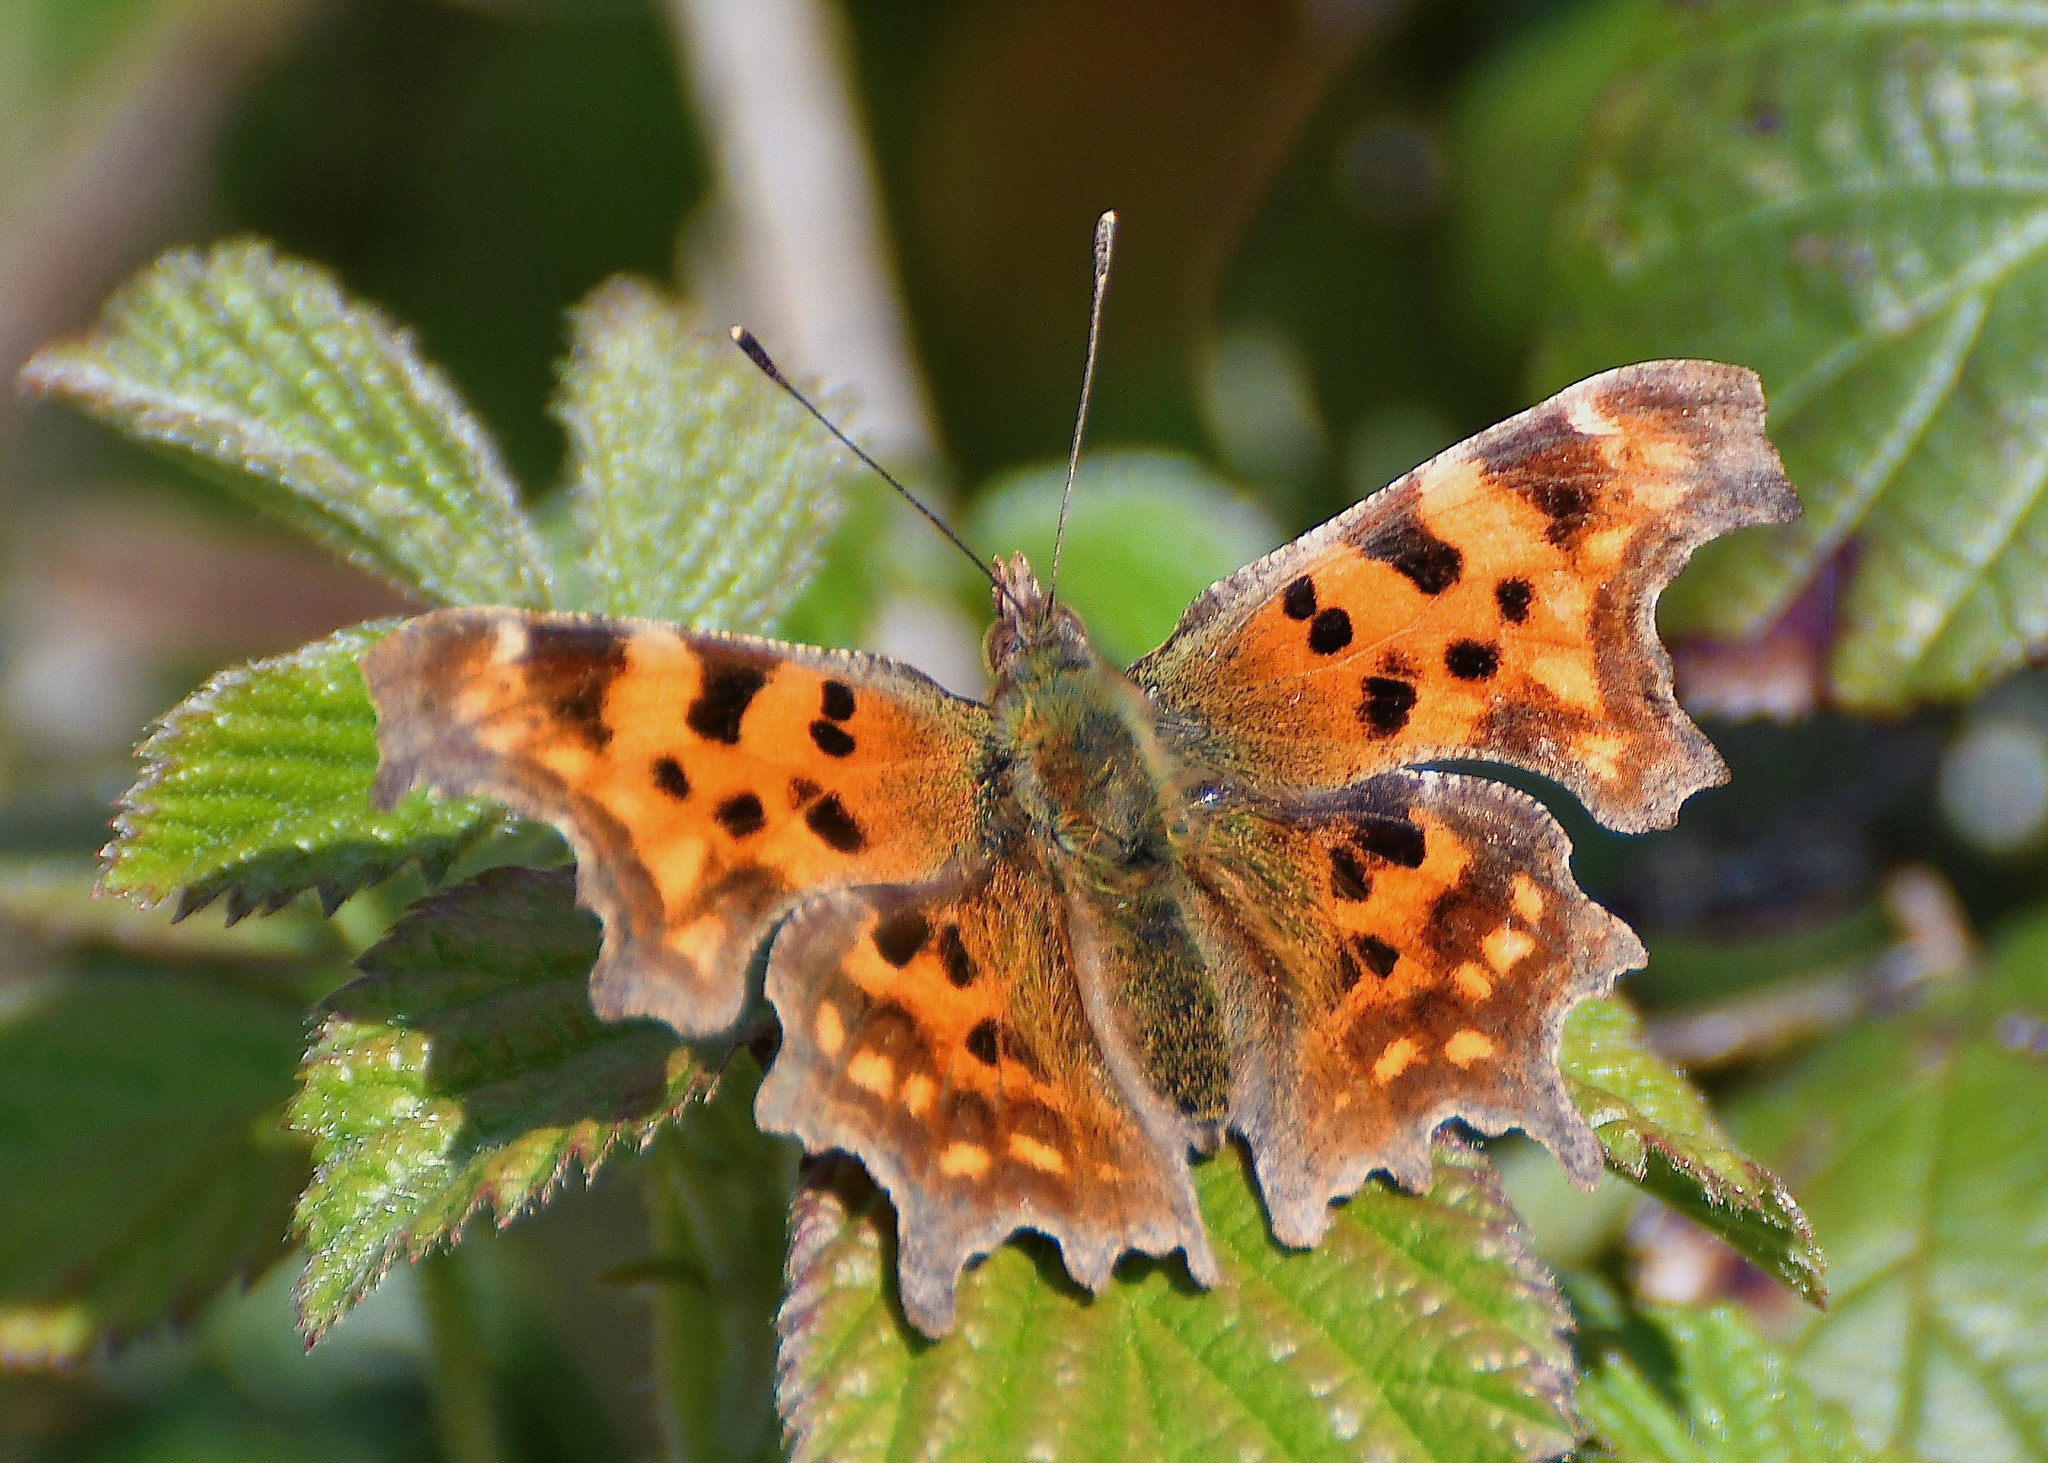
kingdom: Animalia
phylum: Arthropoda
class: Insecta
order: Lepidoptera
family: Nymphalidae
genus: Polygonia
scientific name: Polygonia c-album
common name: Comma
